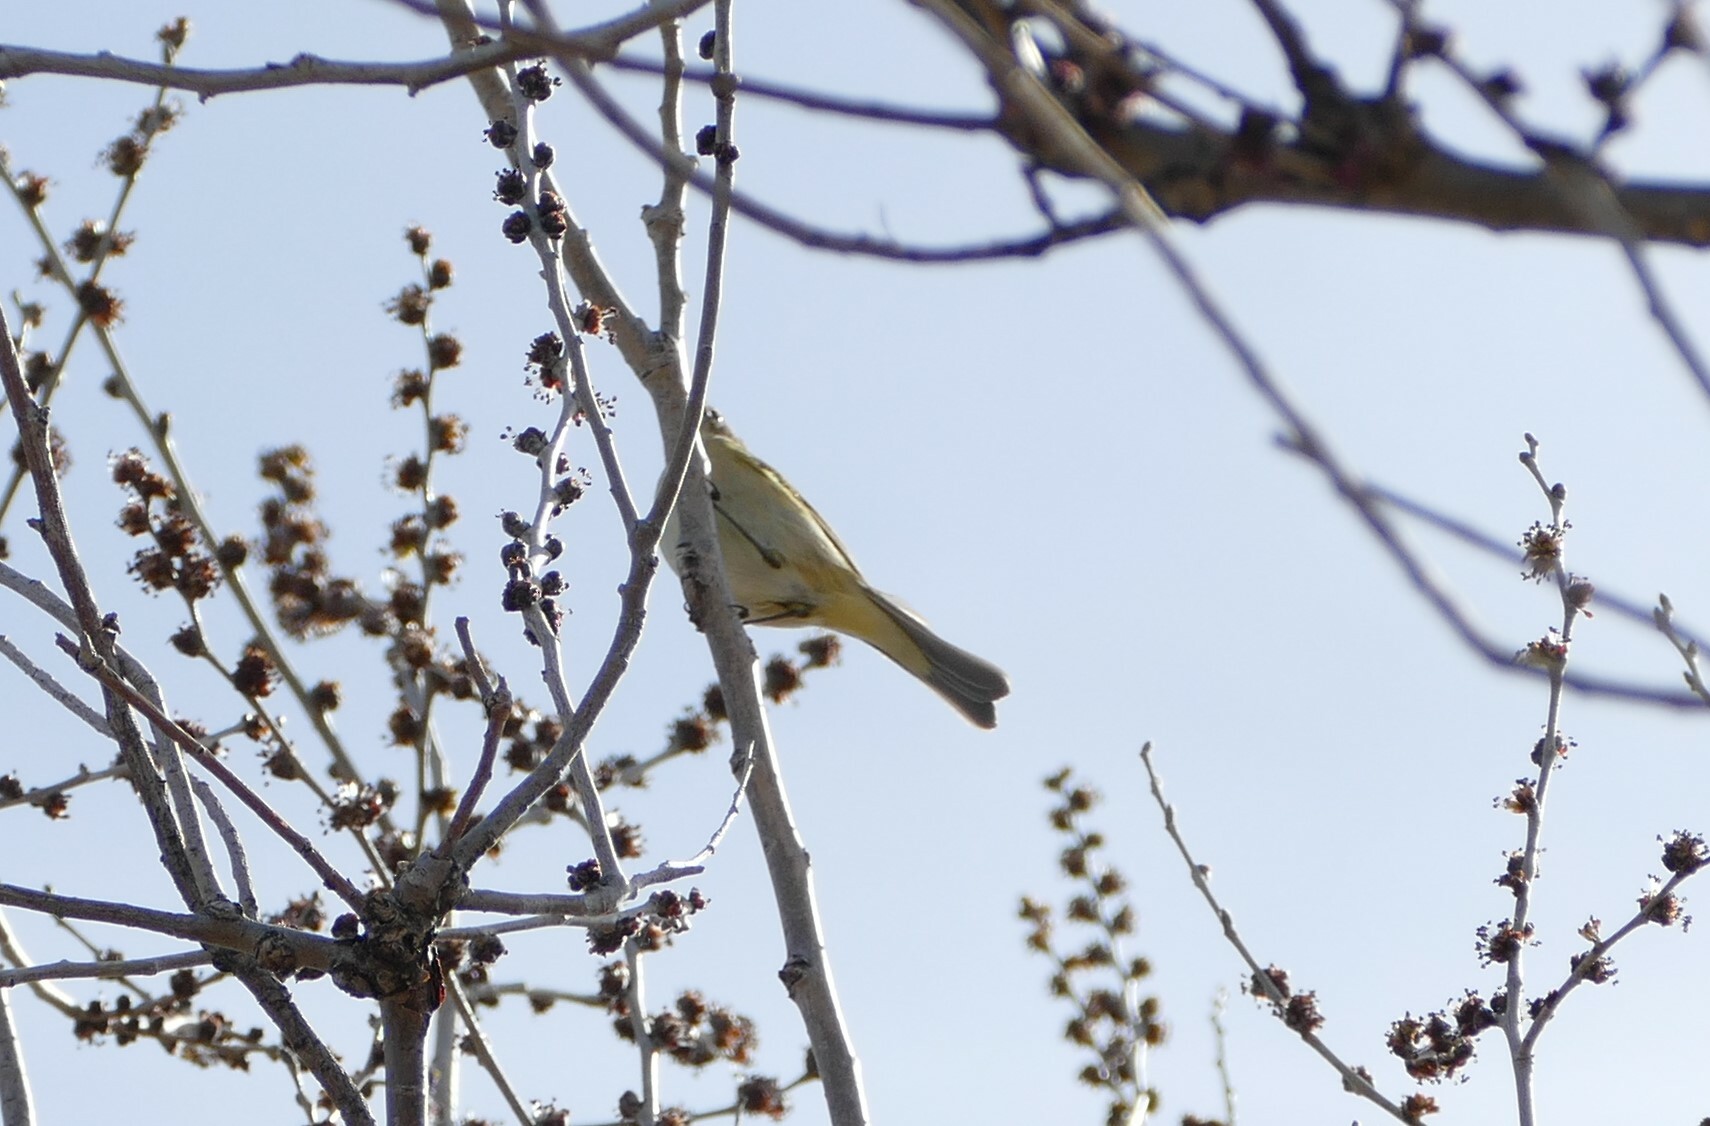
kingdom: Animalia
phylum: Chordata
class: Aves
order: Passeriformes
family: Phylloscopidae
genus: Phylloscopus
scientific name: Phylloscopus collybita
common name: Common chiffchaff
